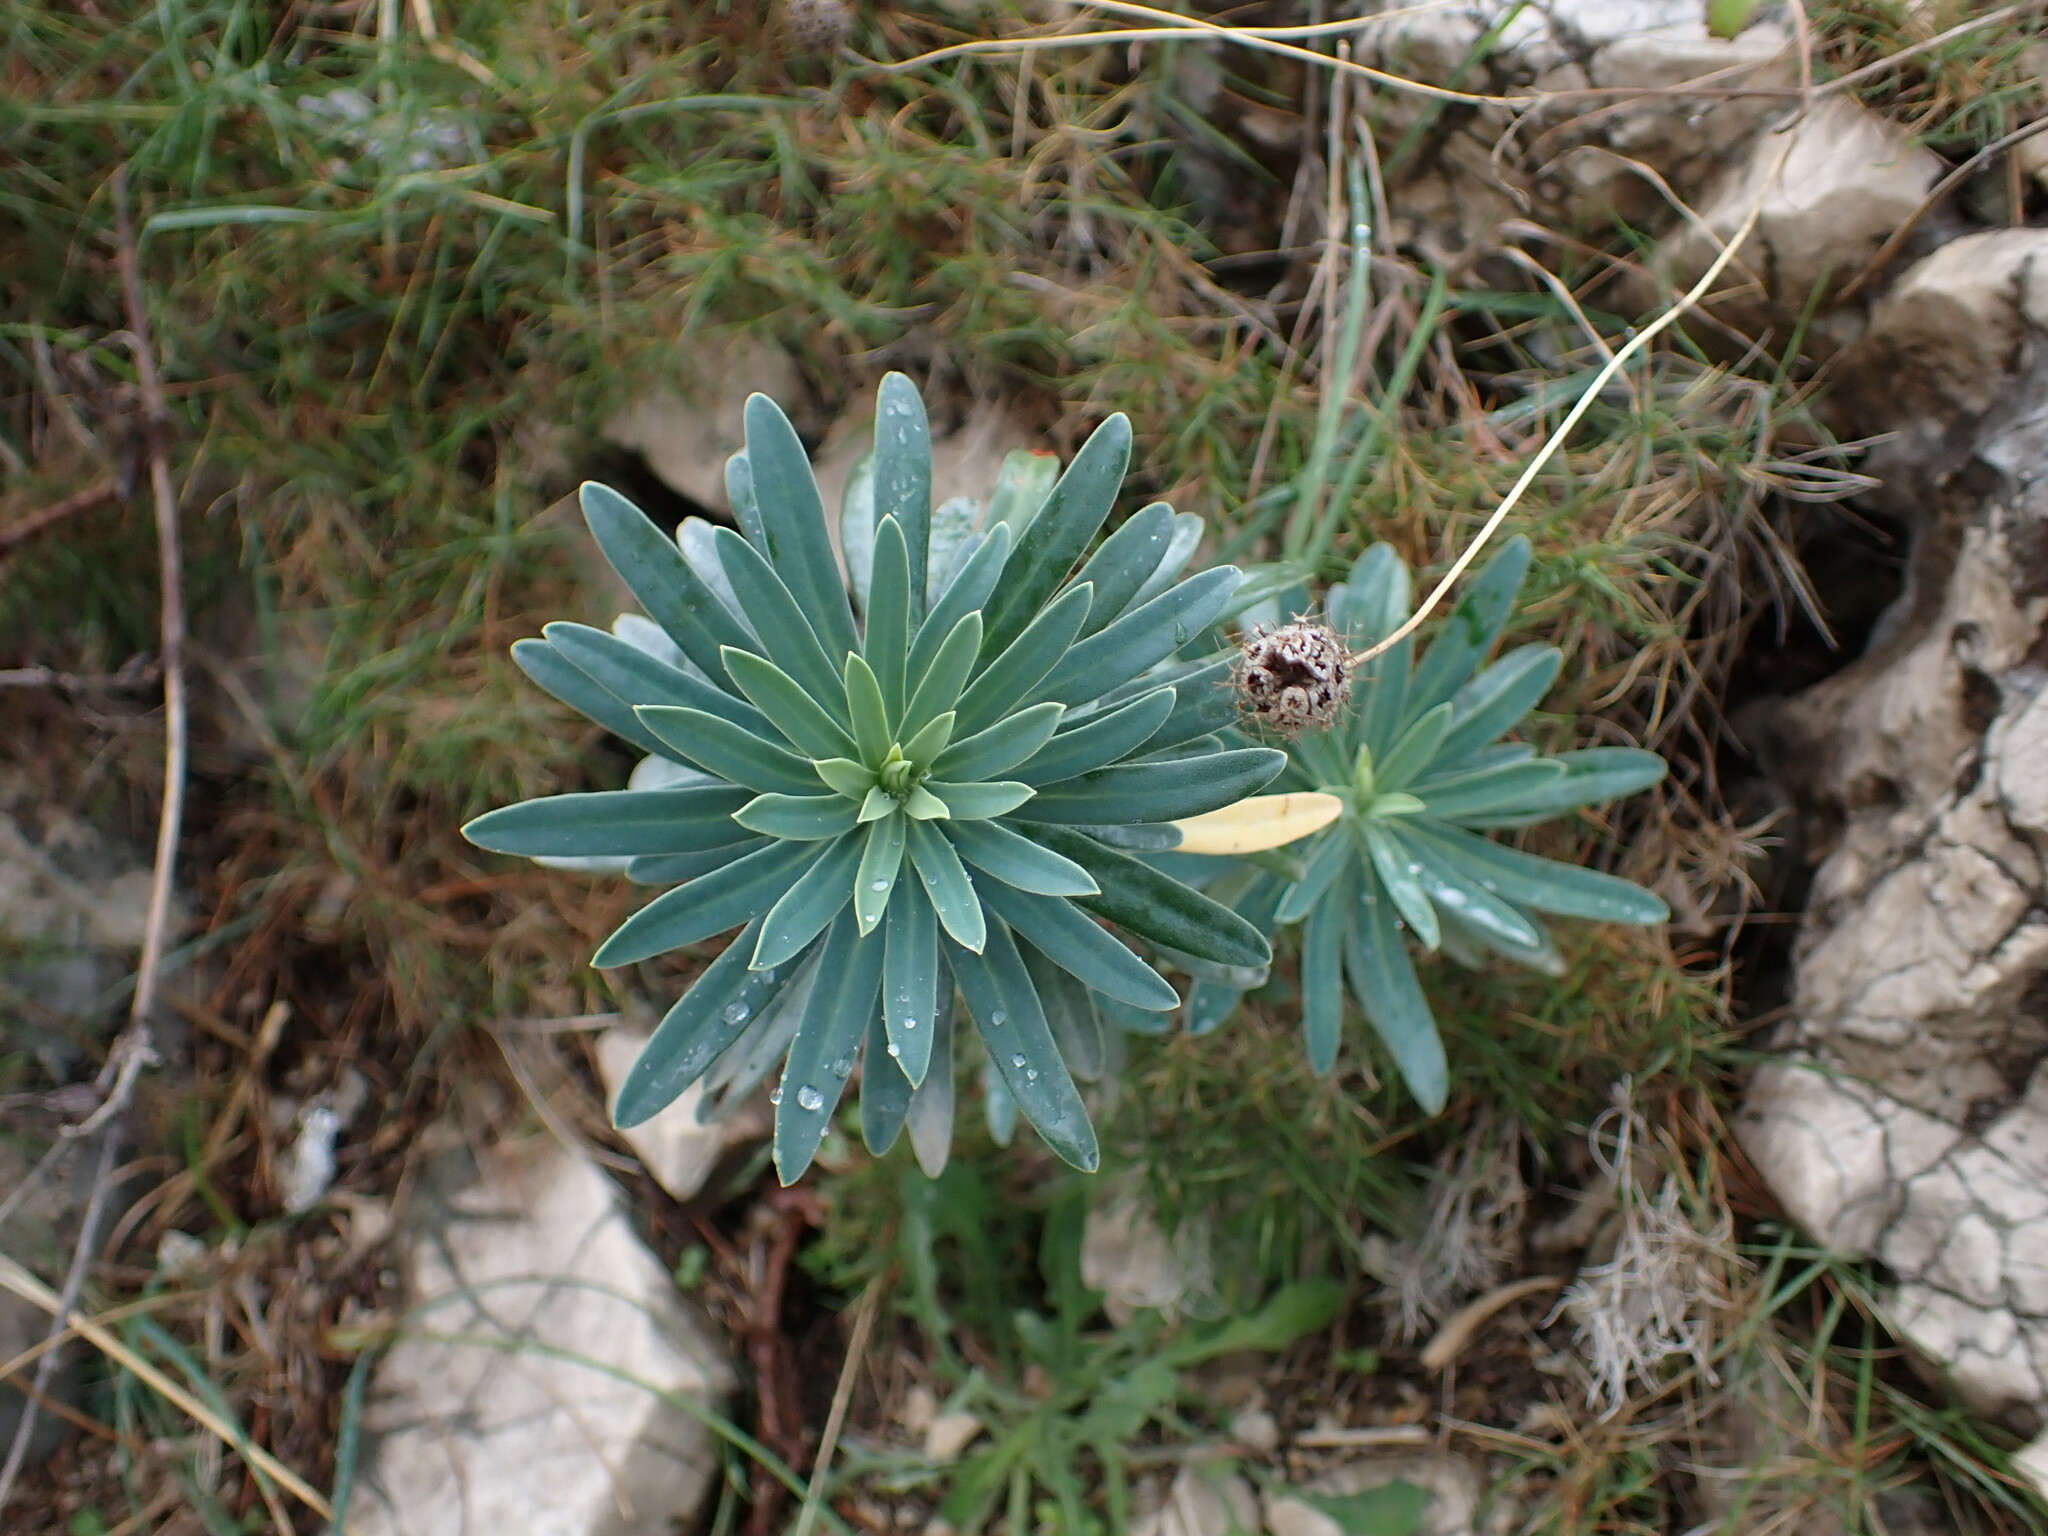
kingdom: Plantae
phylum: Tracheophyta
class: Magnoliopsida
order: Malpighiales
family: Euphorbiaceae
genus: Euphorbia
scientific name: Euphorbia characias
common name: Mediterranean spurge
